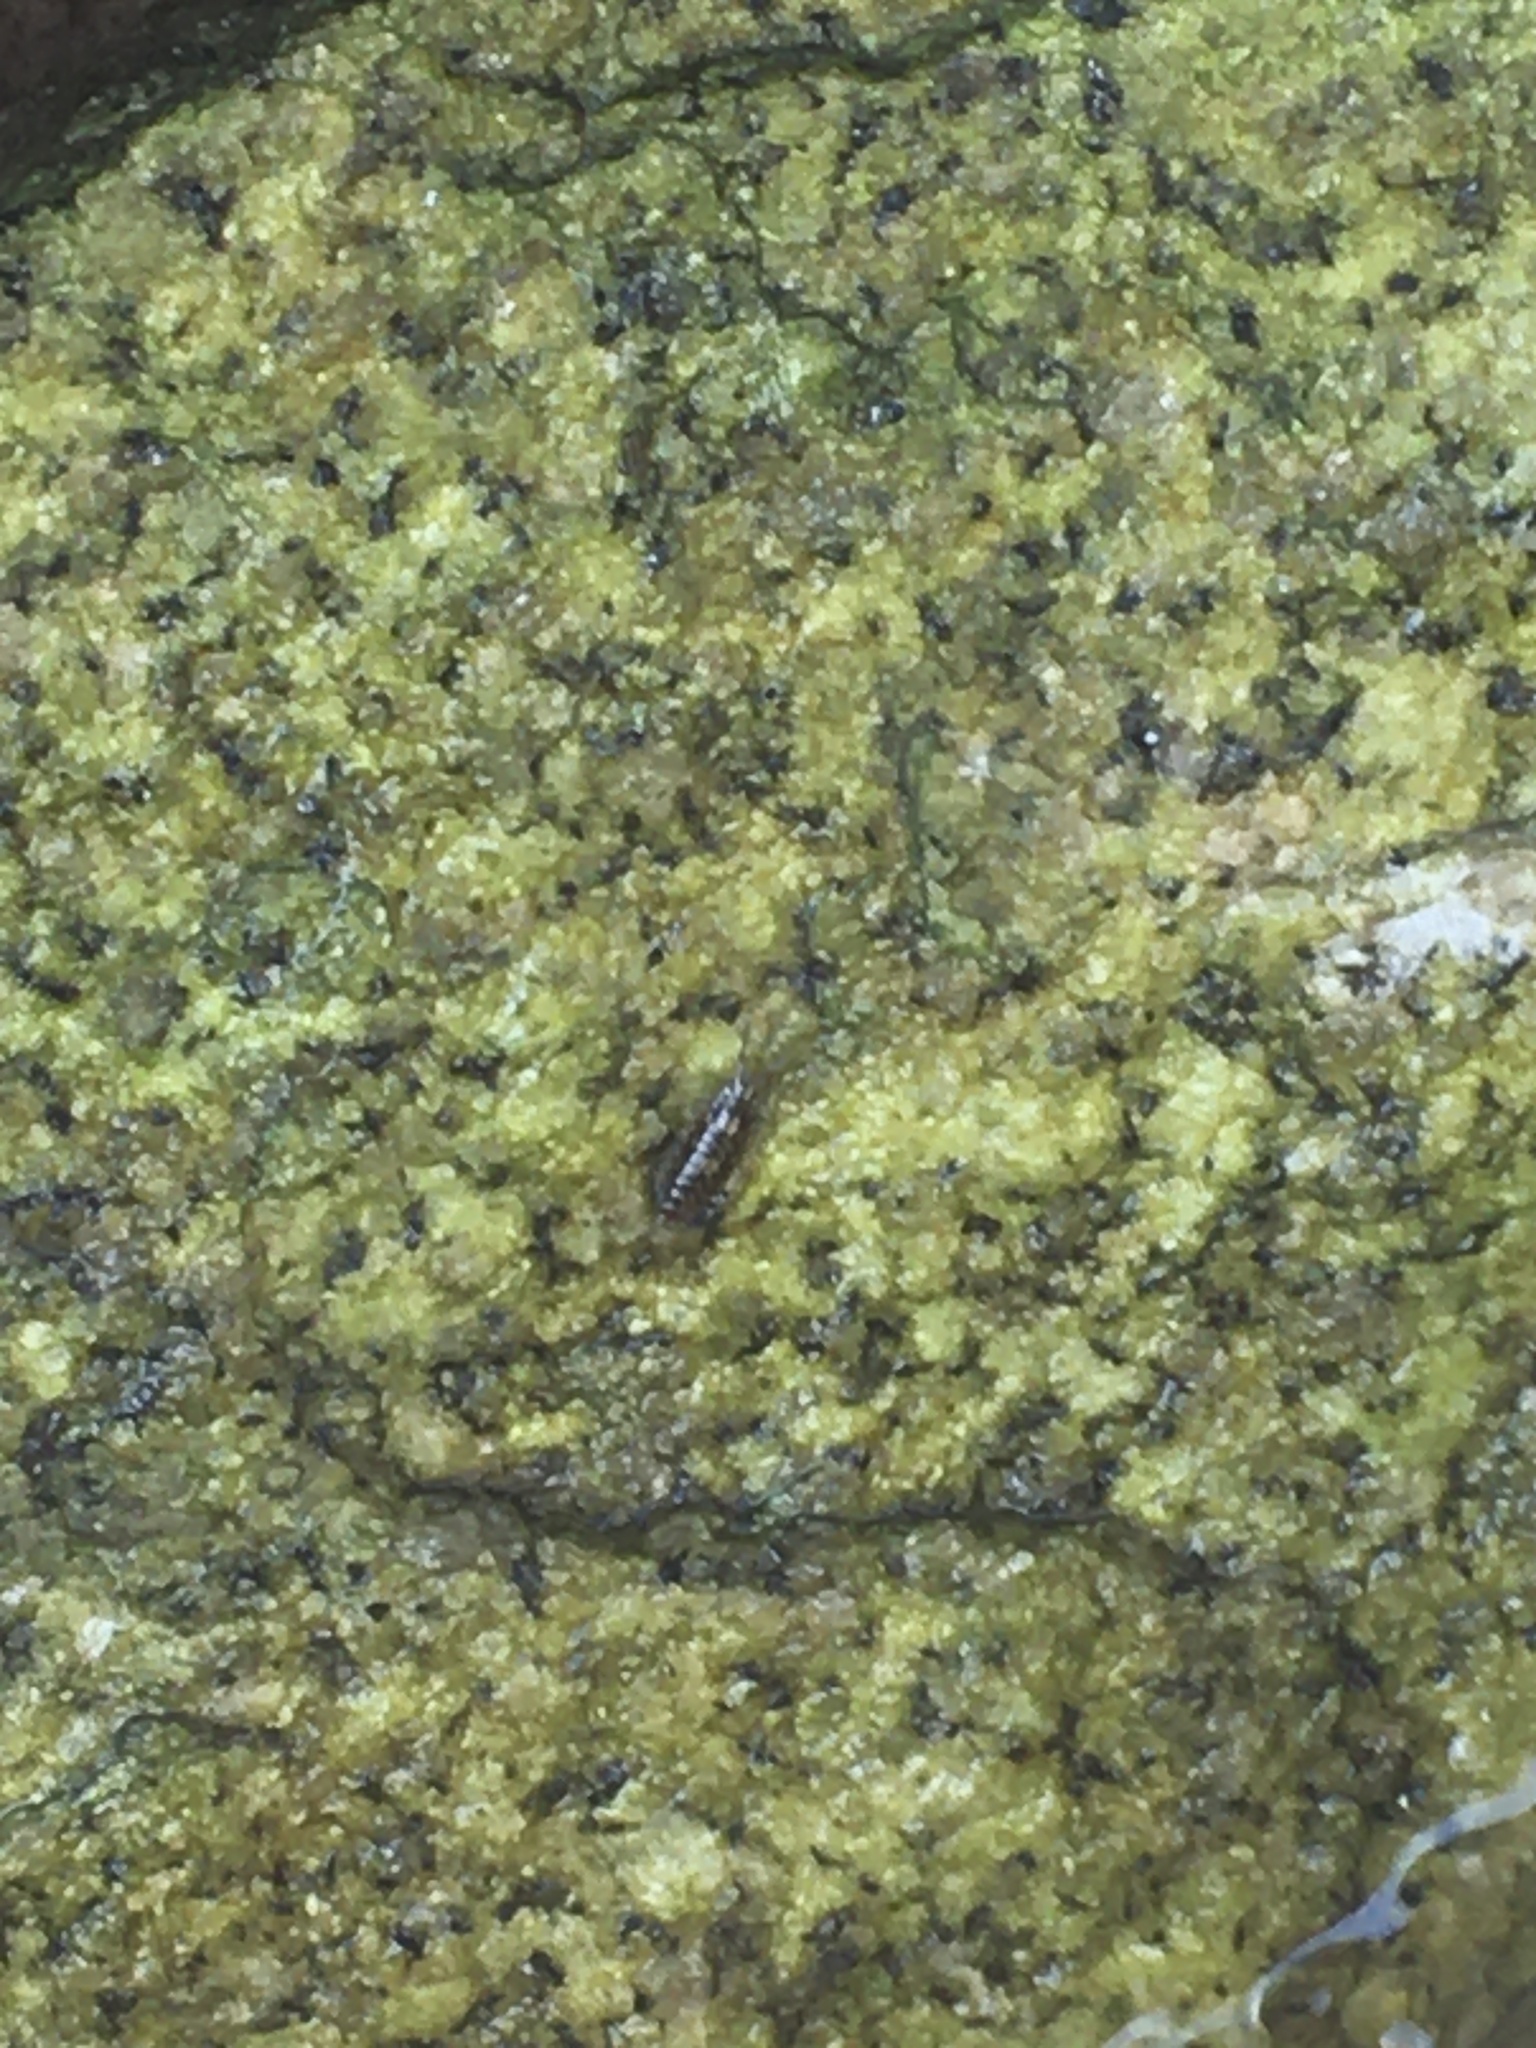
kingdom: Animalia
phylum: Arthropoda
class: Malacostraca
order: Isopoda
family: Ligiidae
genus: Ligia
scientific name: Ligia exotica
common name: Wharf roach
